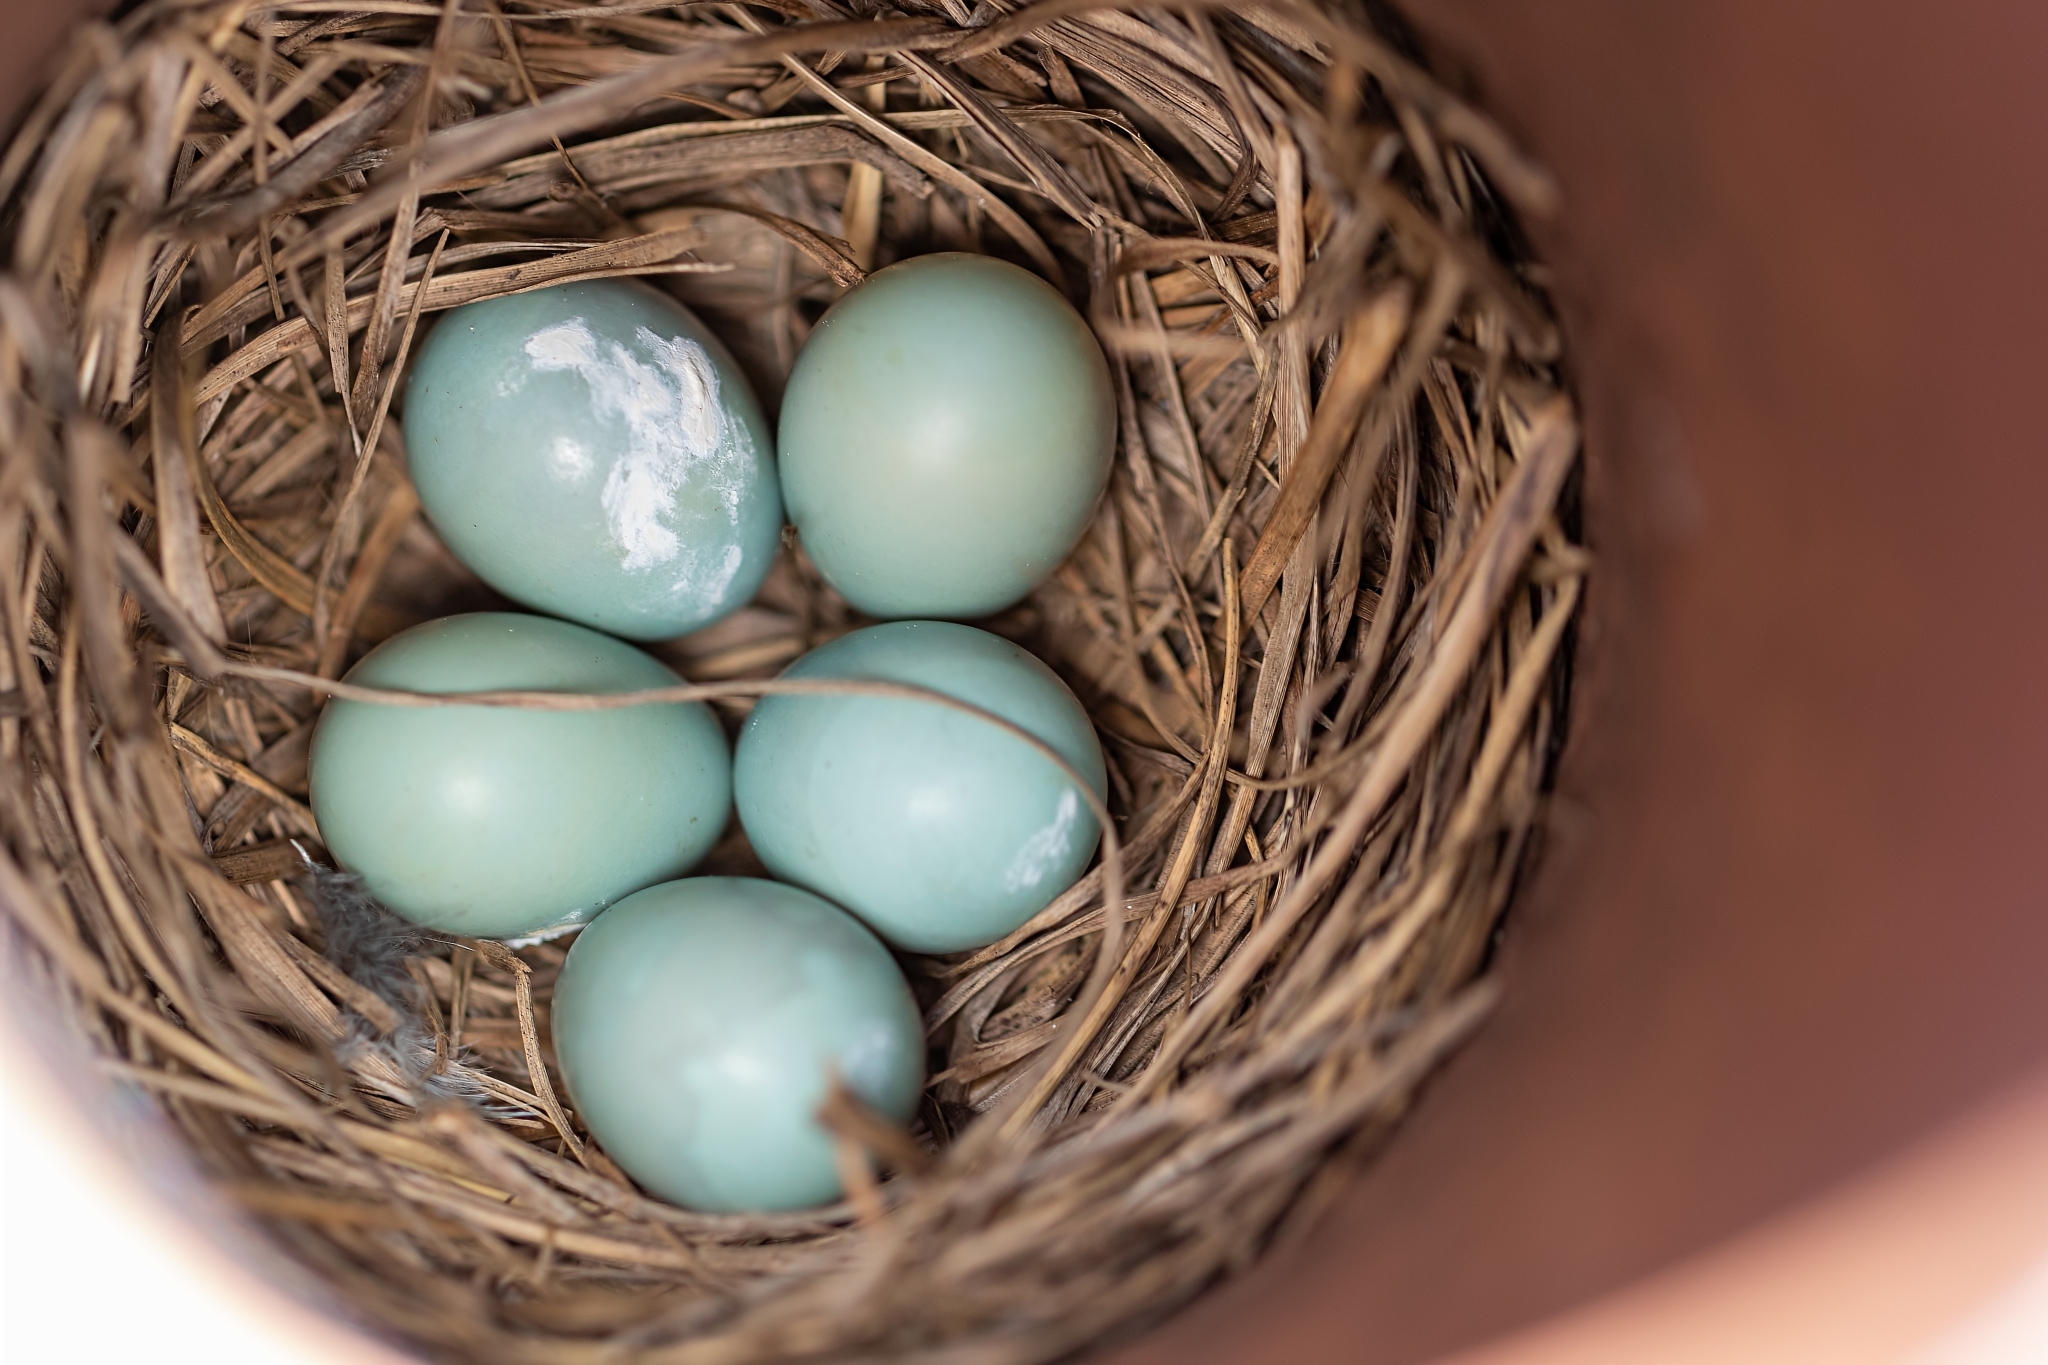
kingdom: Animalia
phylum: Chordata
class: Aves
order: Passeriformes
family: Turdidae
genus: Sialia
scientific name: Sialia sialis
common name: Eastern bluebird
